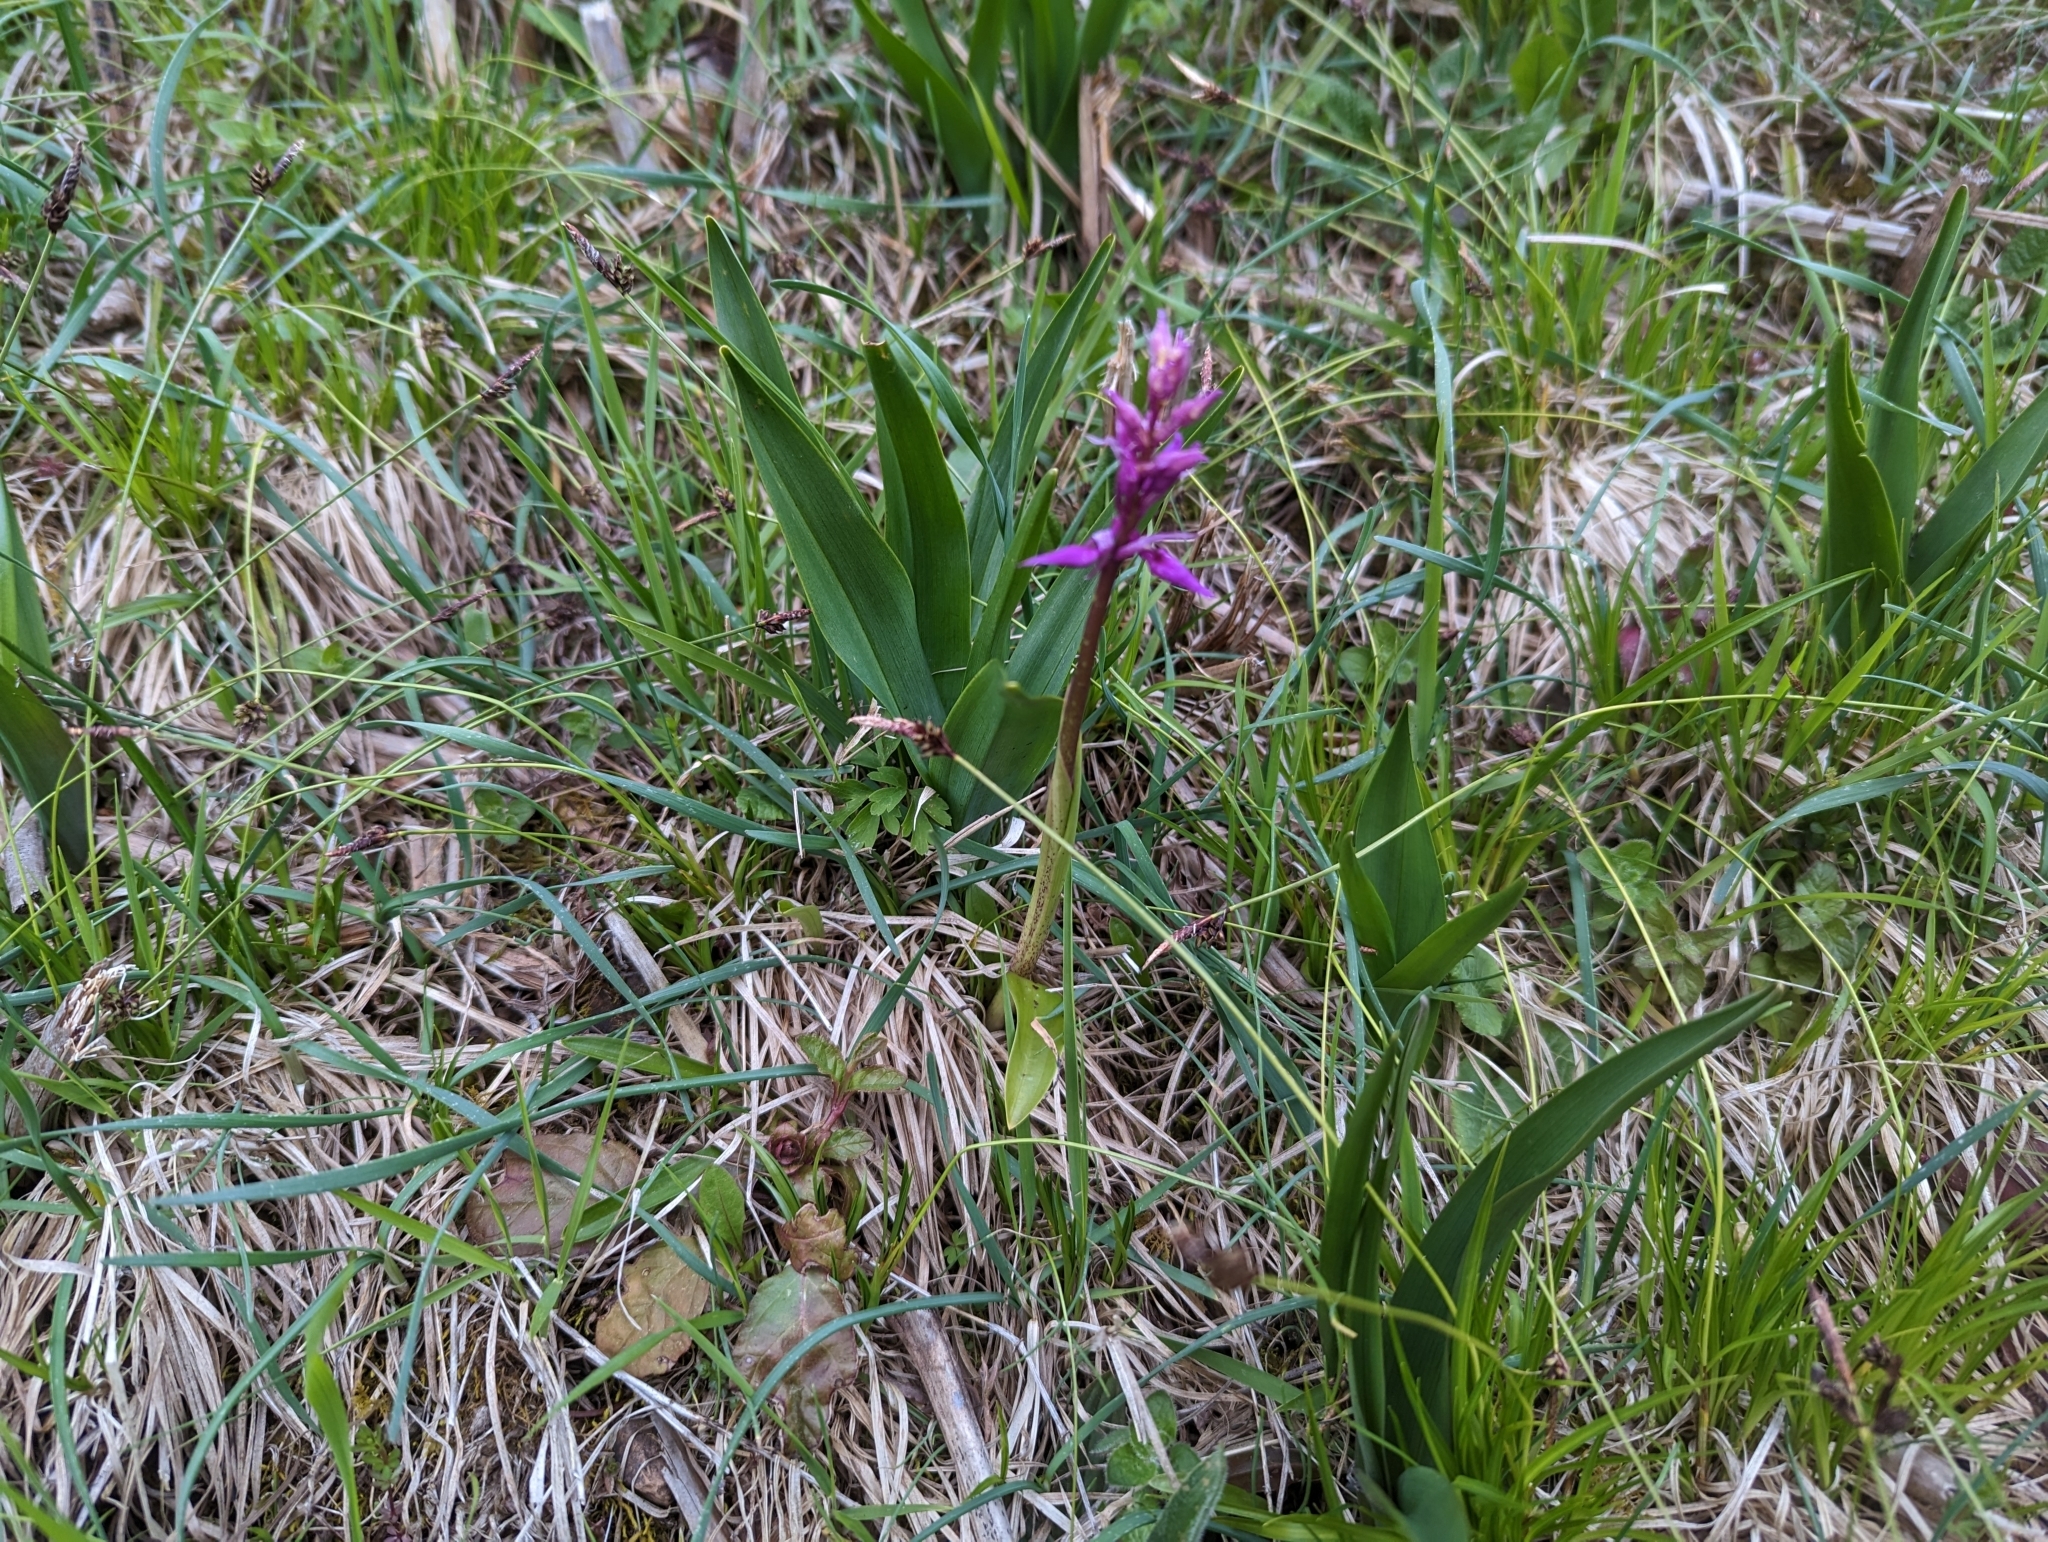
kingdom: Plantae
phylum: Tracheophyta
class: Liliopsida
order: Asparagales
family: Orchidaceae
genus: Orchis
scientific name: Orchis mascula
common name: Early-purple orchid
